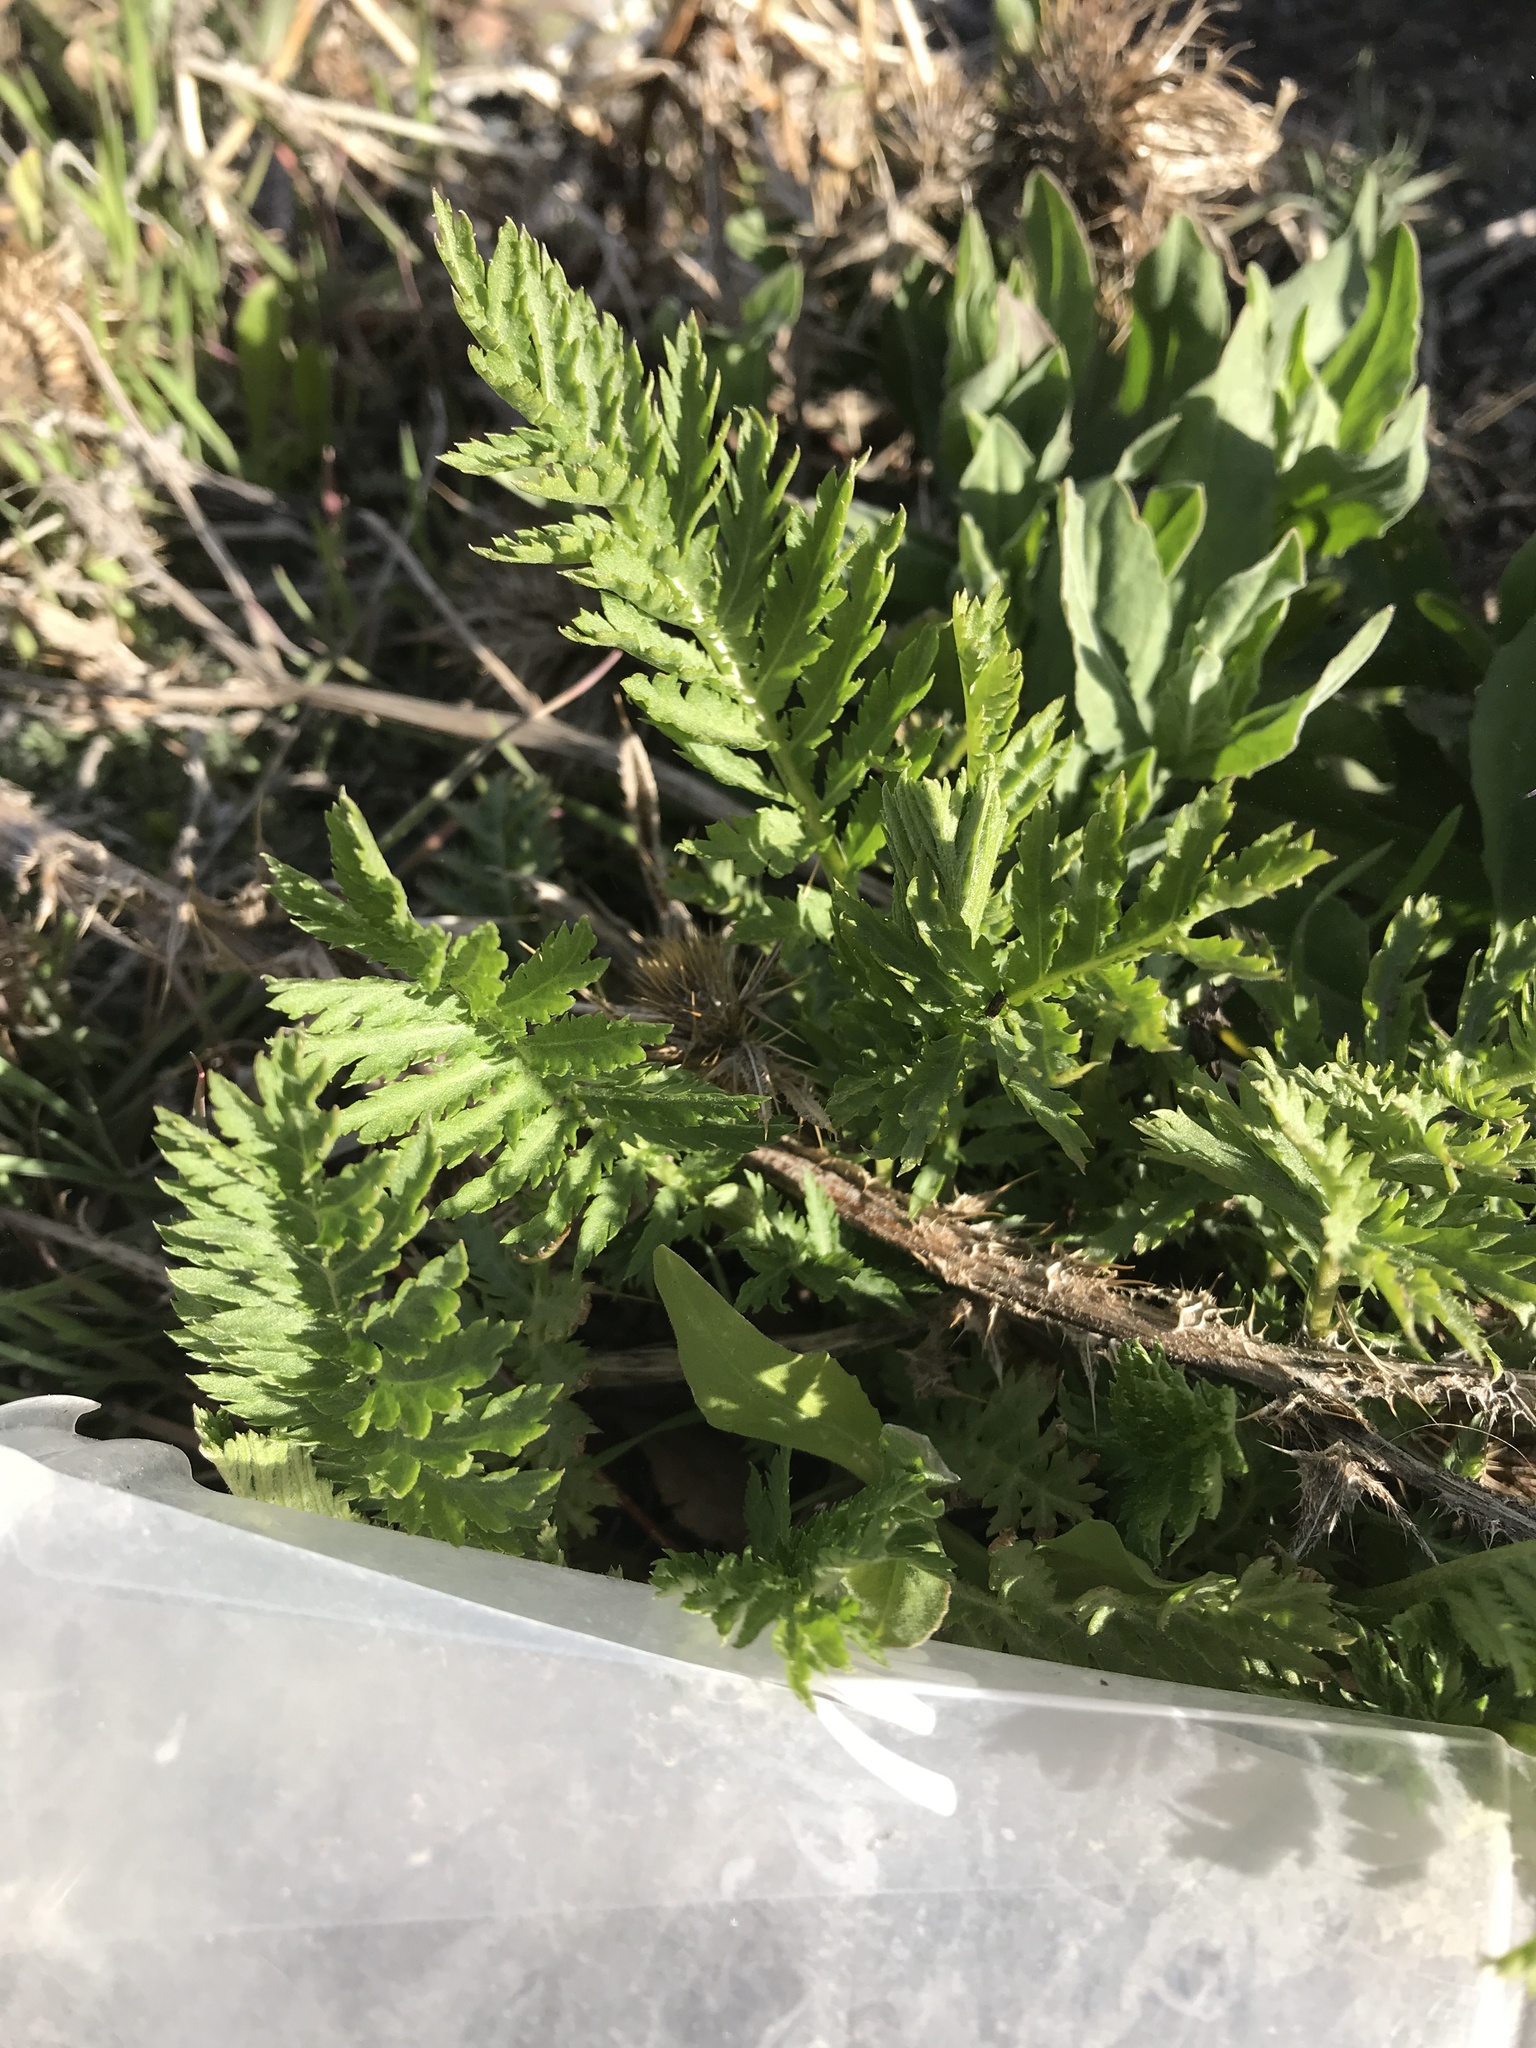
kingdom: Plantae
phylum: Tracheophyta
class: Magnoliopsida
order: Asterales
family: Asteraceae
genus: Tanacetum
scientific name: Tanacetum vulgare
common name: Common tansy
